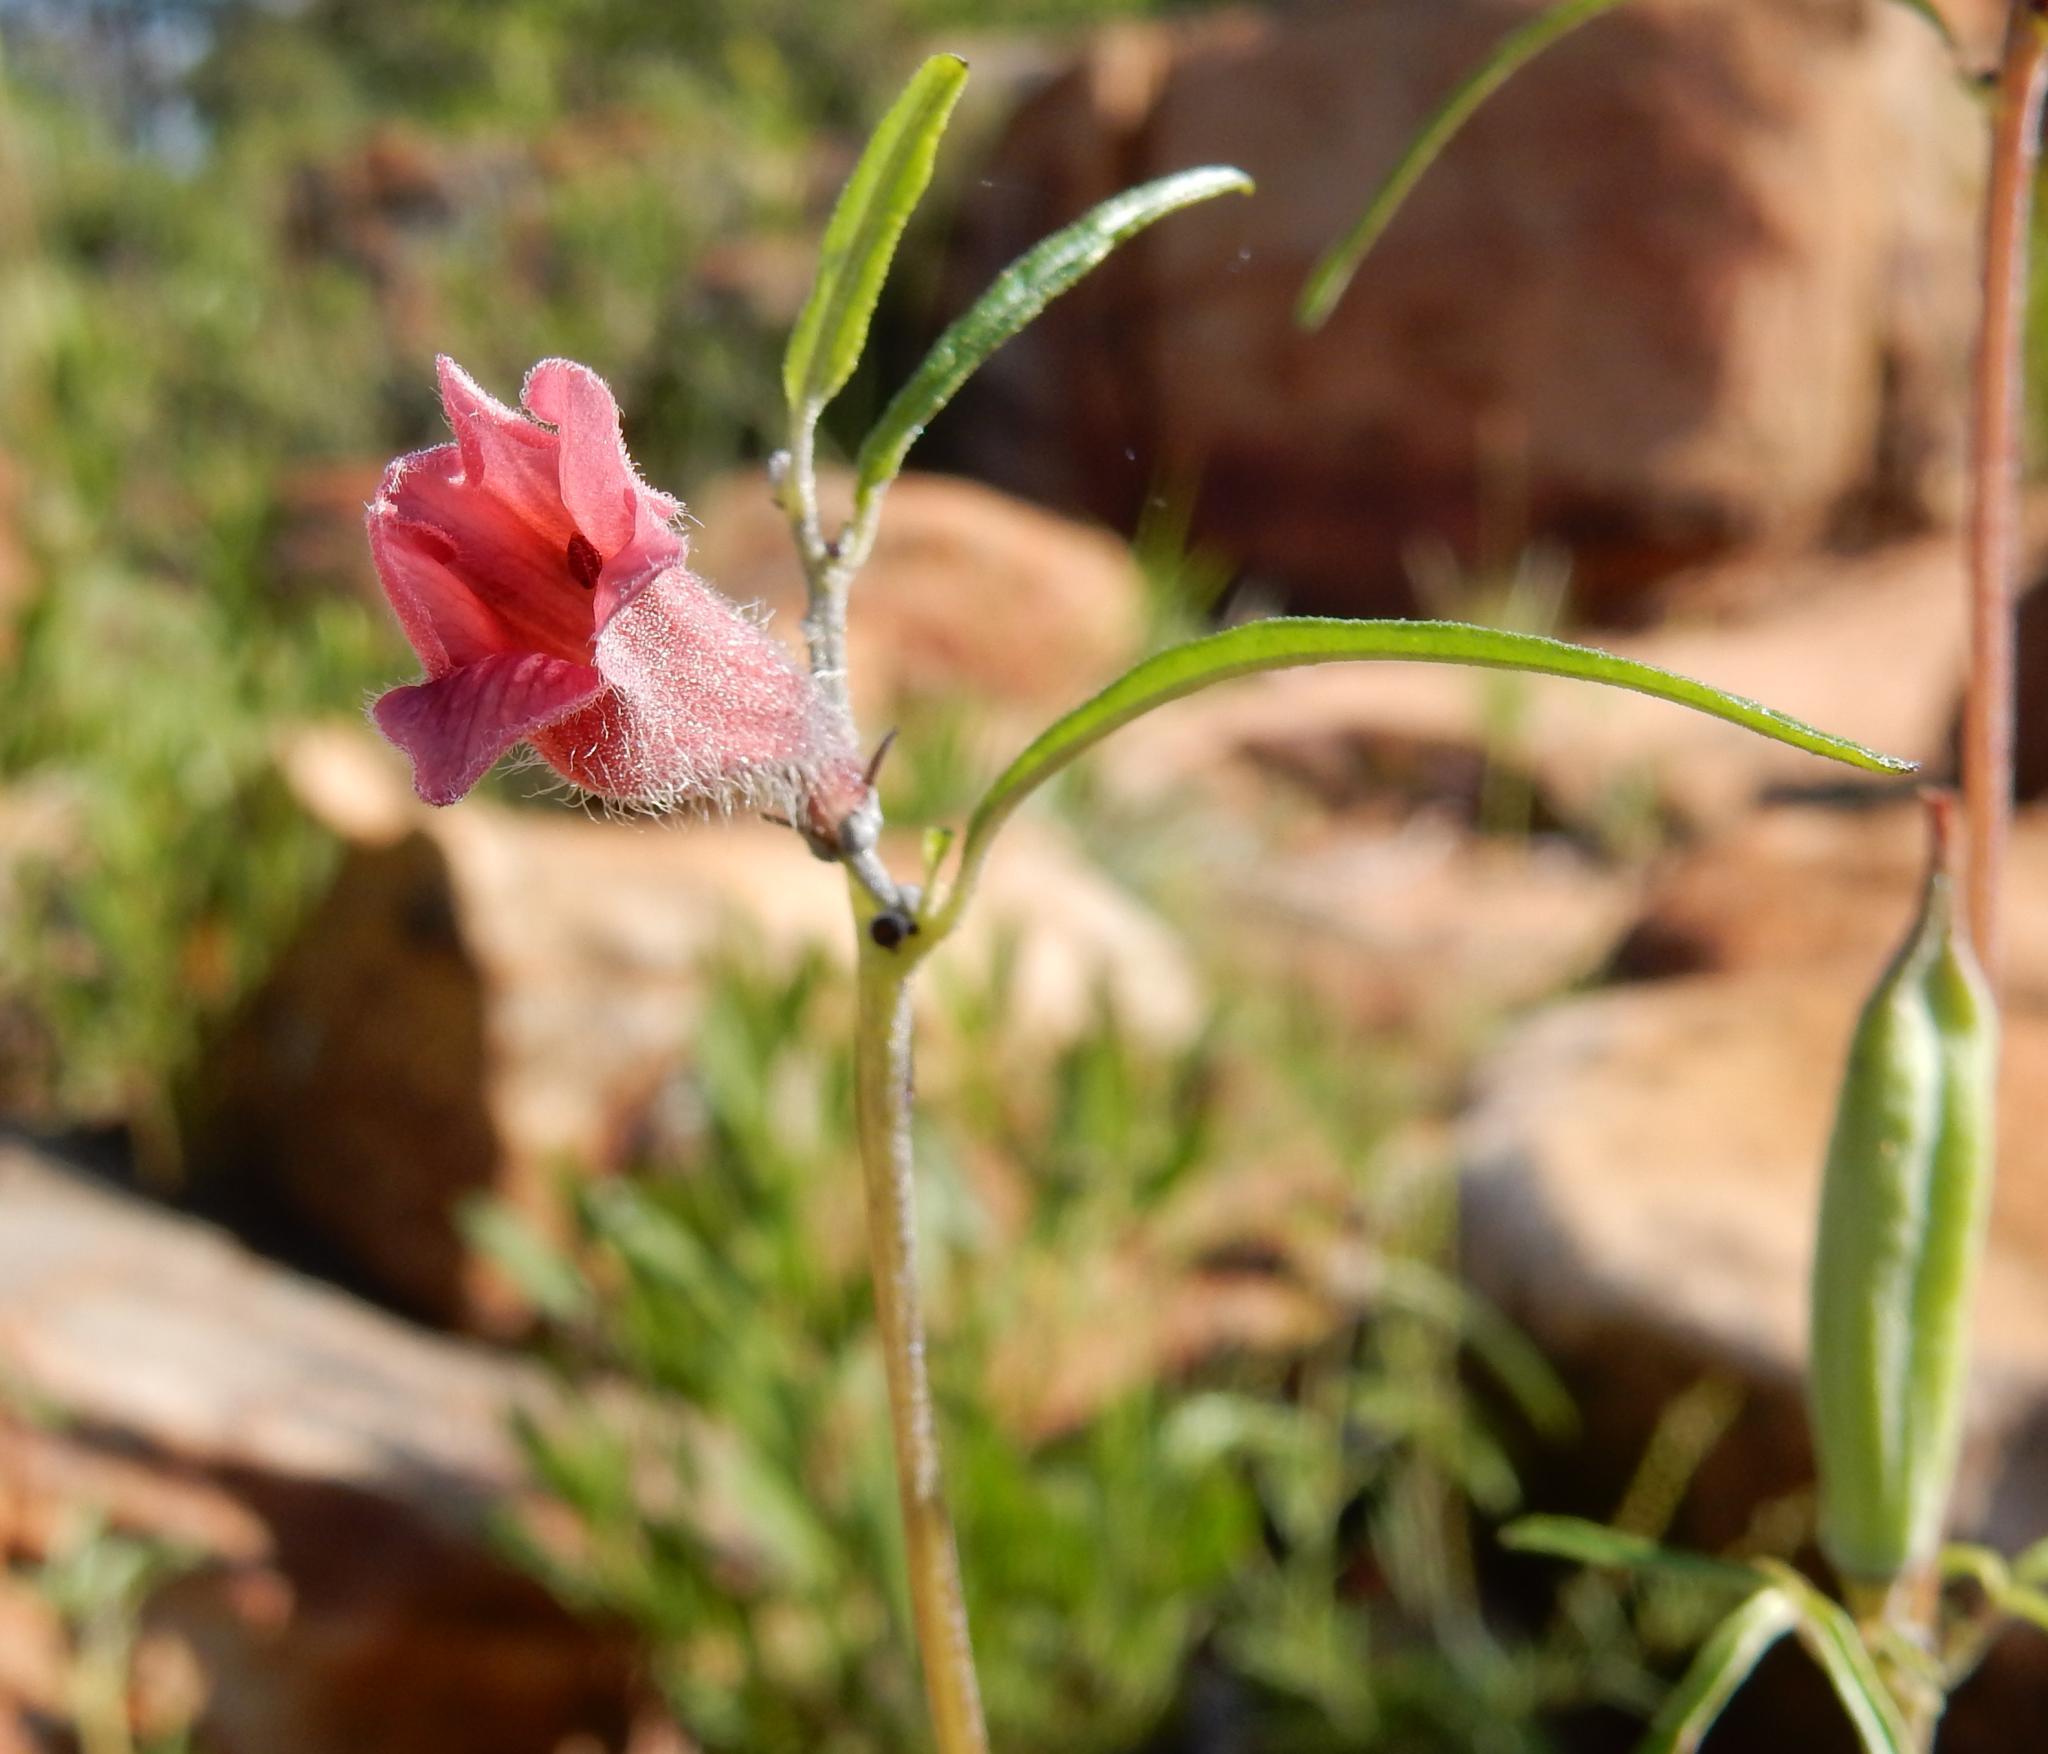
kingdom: Plantae
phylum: Tracheophyta
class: Magnoliopsida
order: Lamiales
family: Pedaliaceae
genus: Sesamum
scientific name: Sesamum triphyllum
